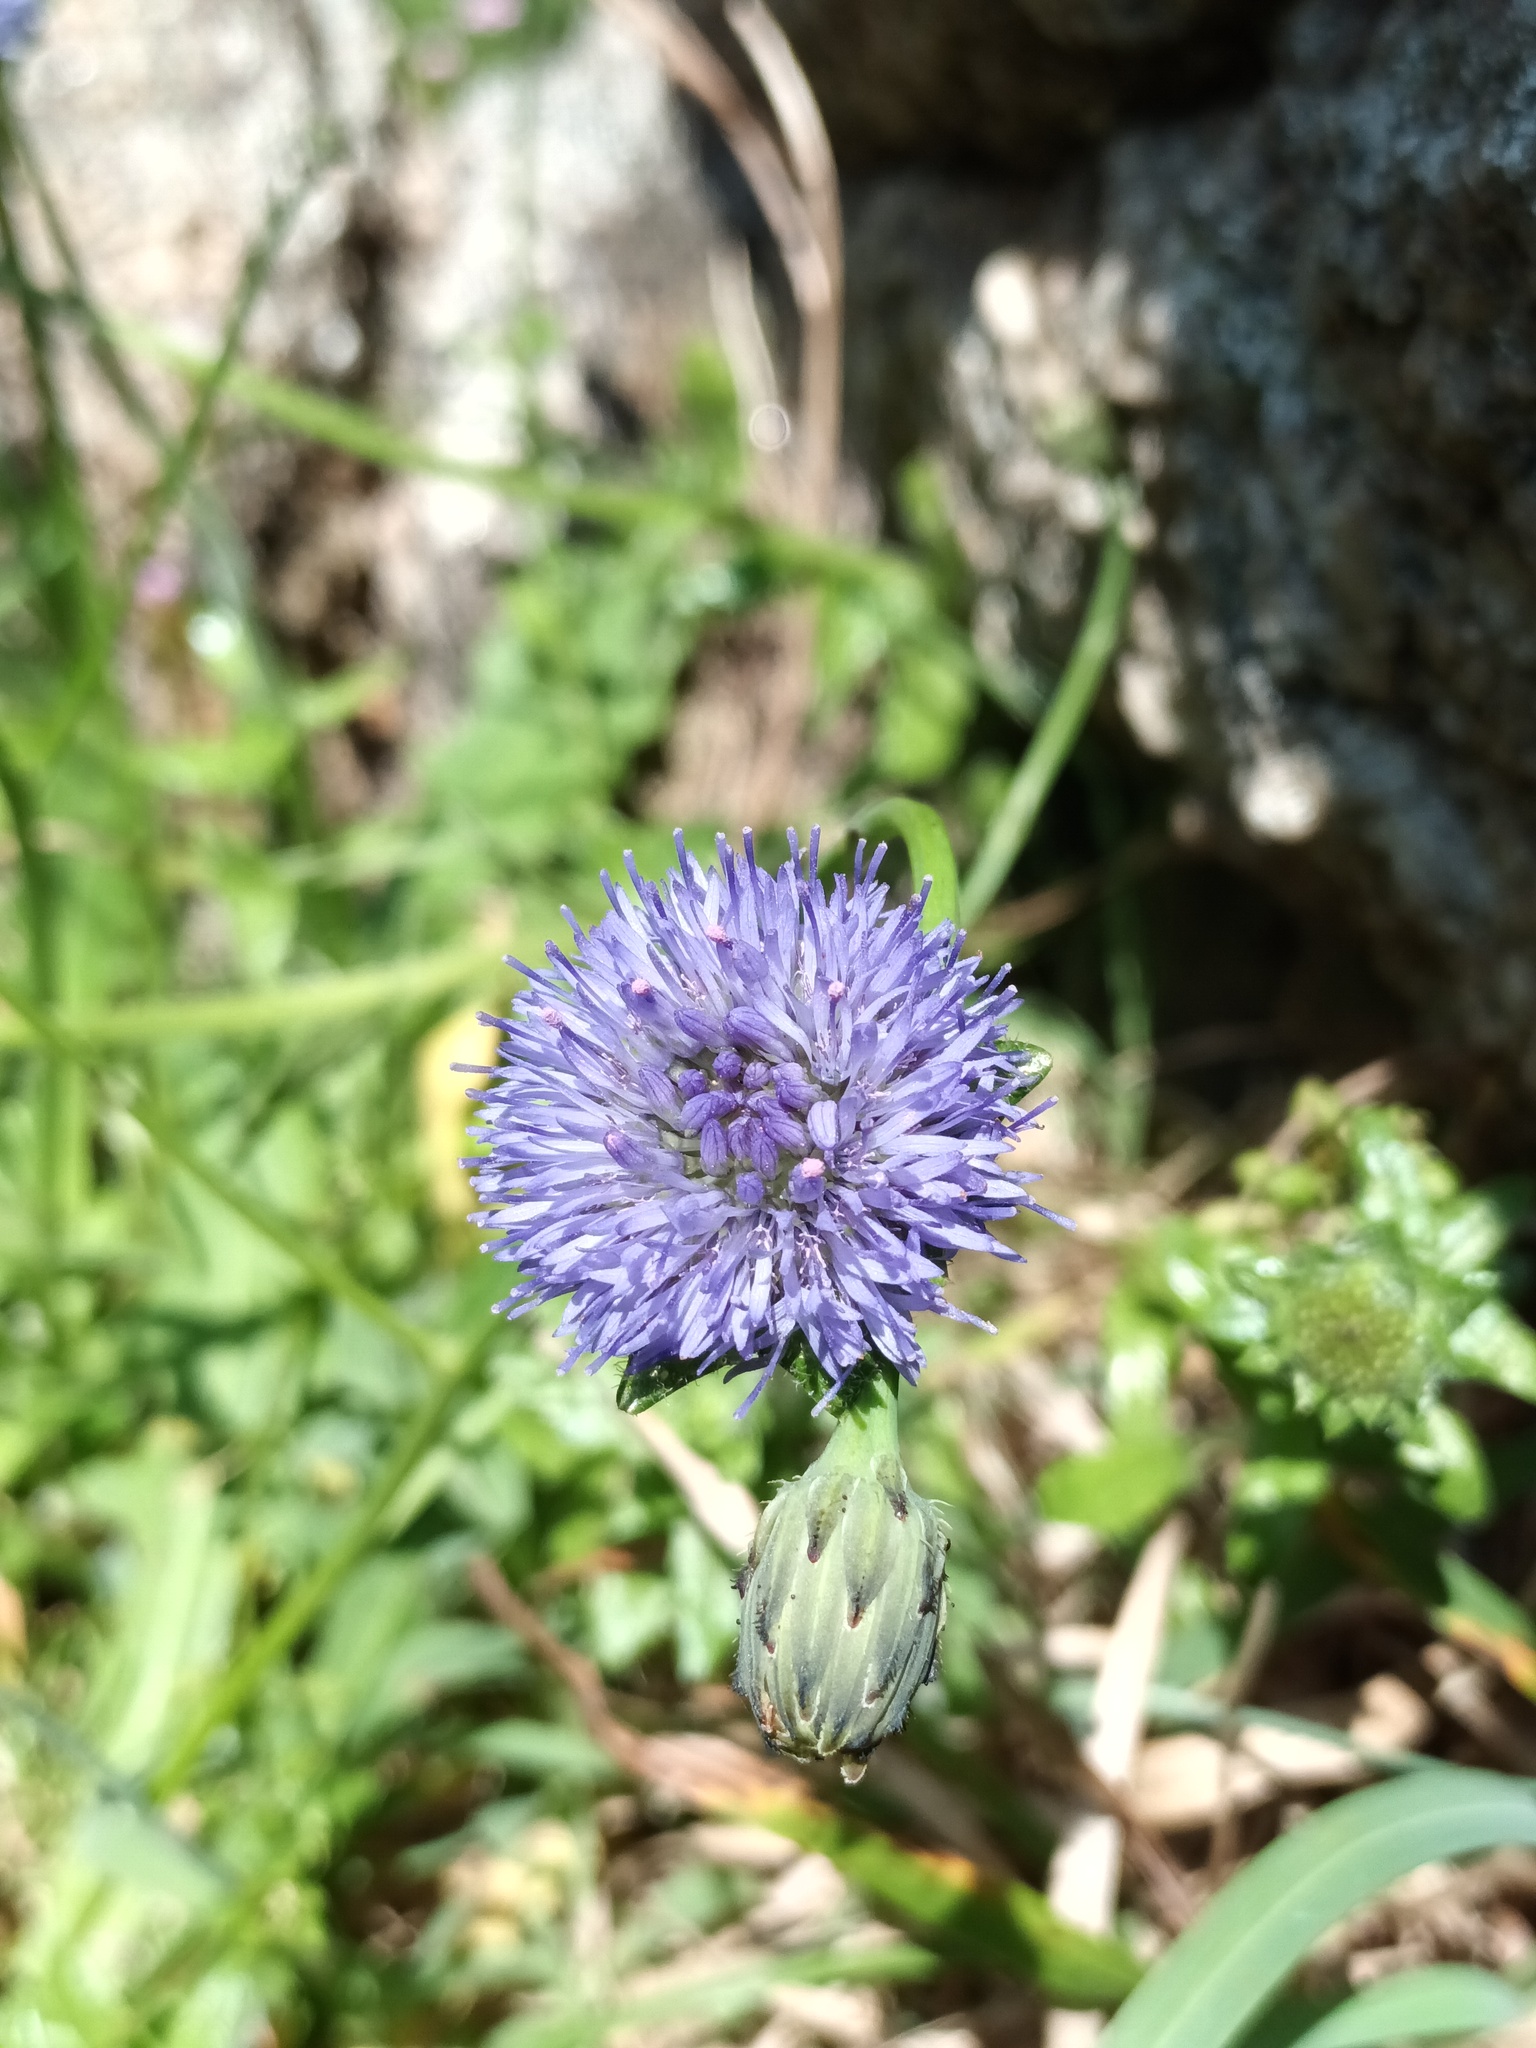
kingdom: Plantae
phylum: Tracheophyta
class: Magnoliopsida
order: Asterales
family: Campanulaceae
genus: Jasione
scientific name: Jasione montana
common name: Sheep's-bit
